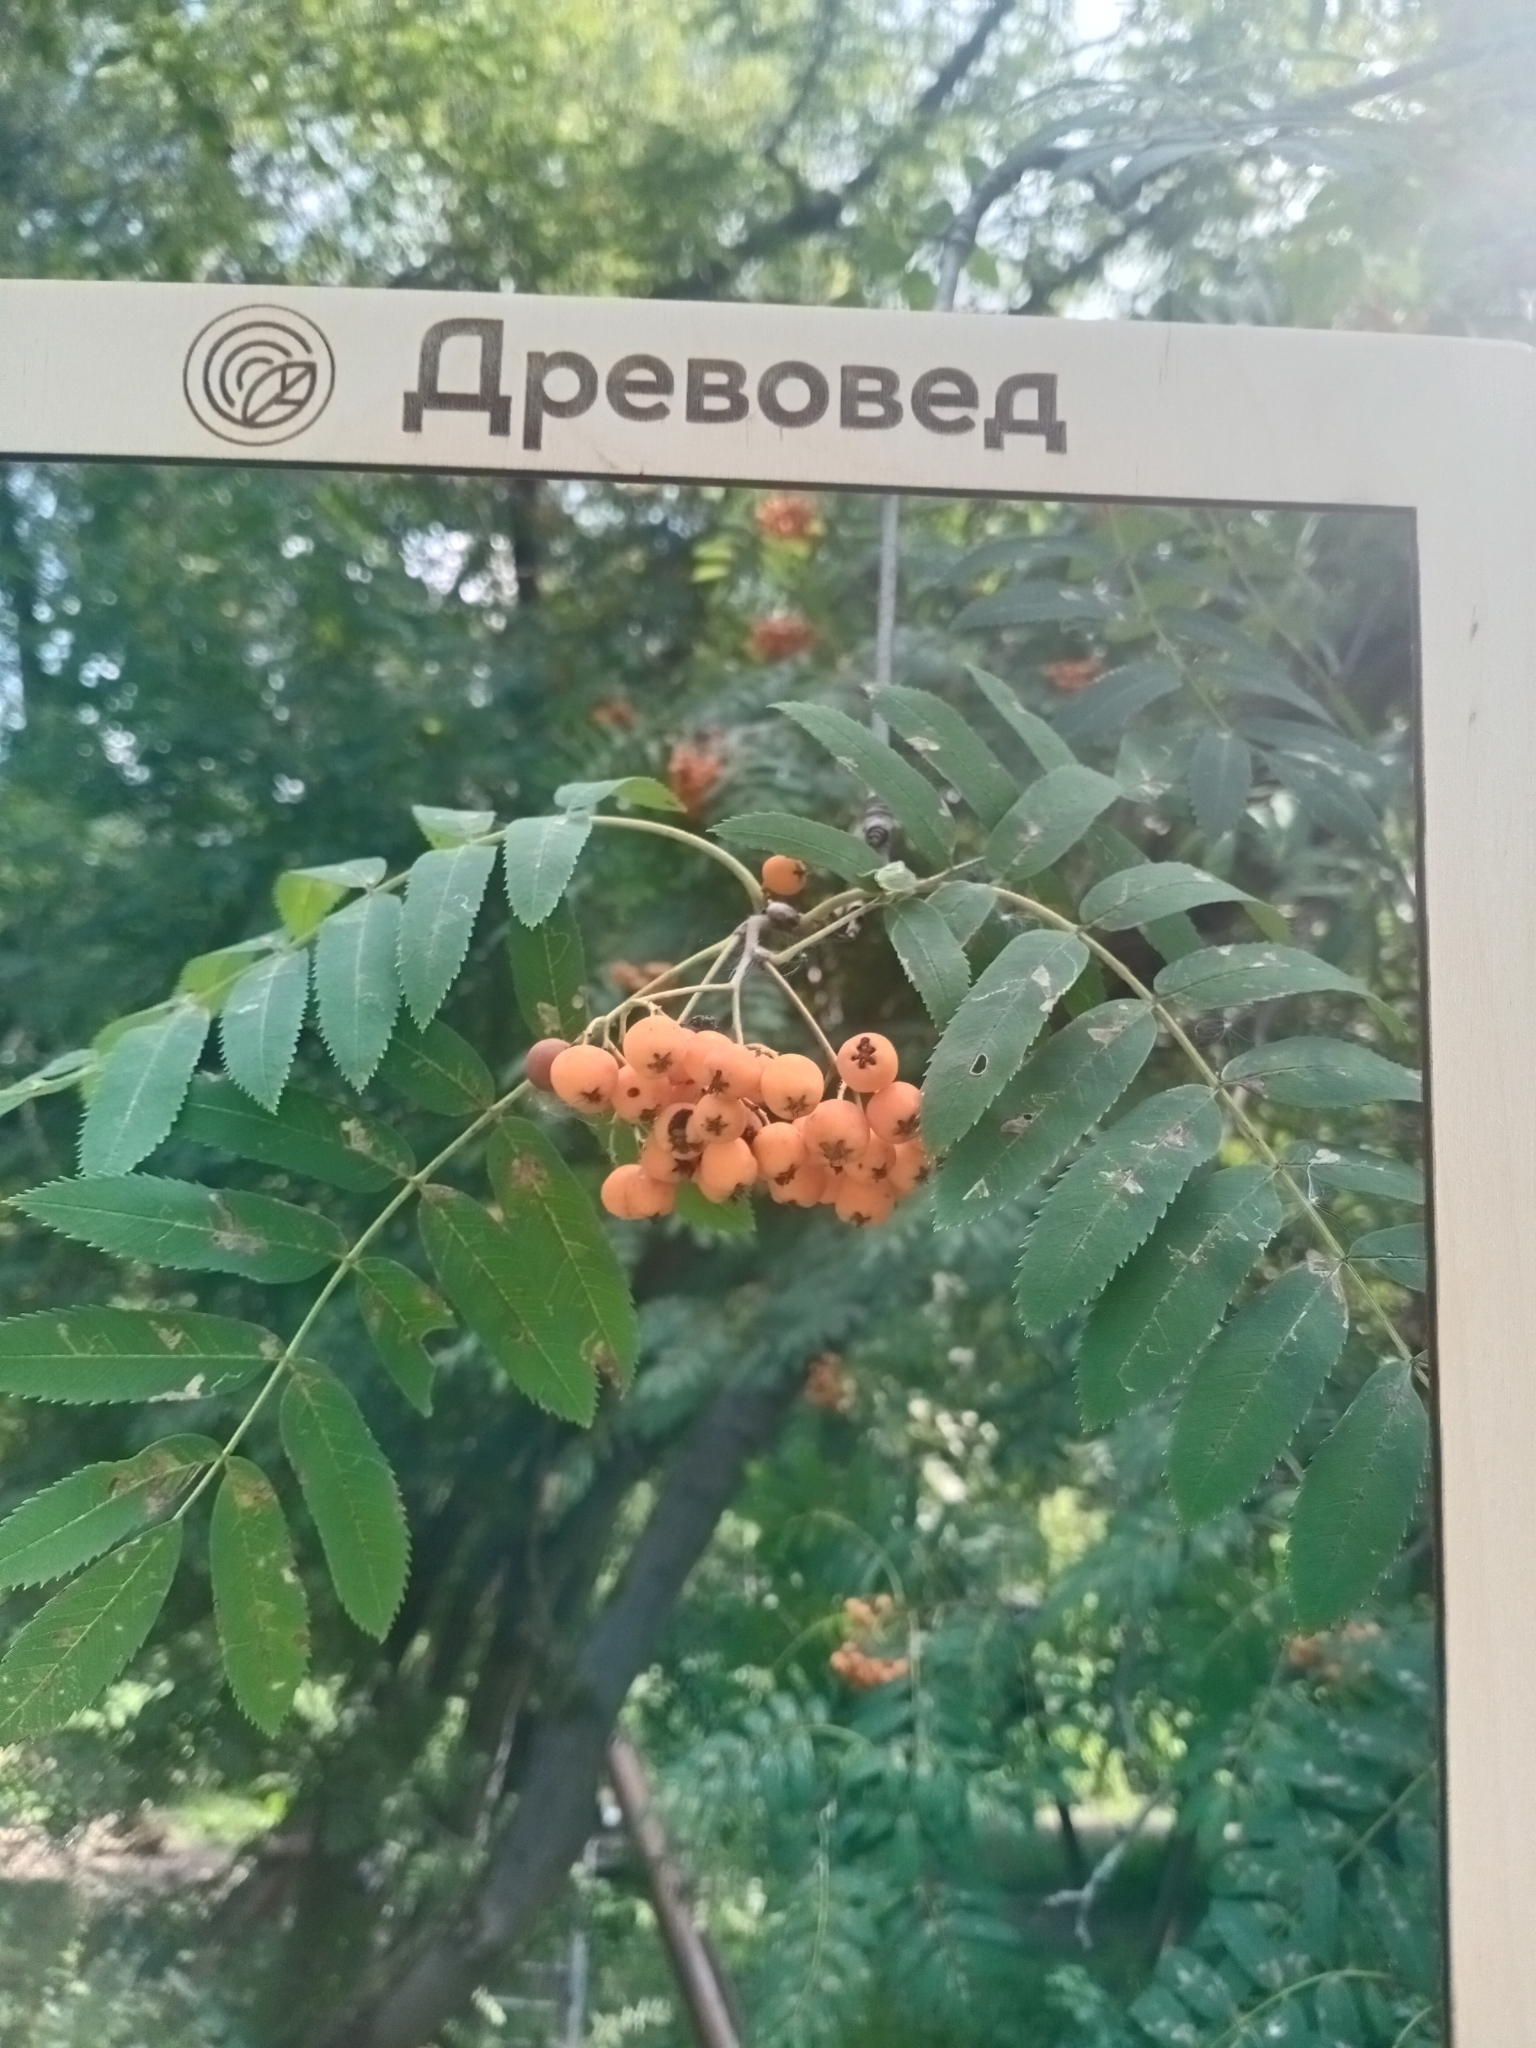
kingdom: Plantae
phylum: Tracheophyta
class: Magnoliopsida
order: Rosales
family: Rosaceae
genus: Sorbus
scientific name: Sorbus aucuparia
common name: Rowan
